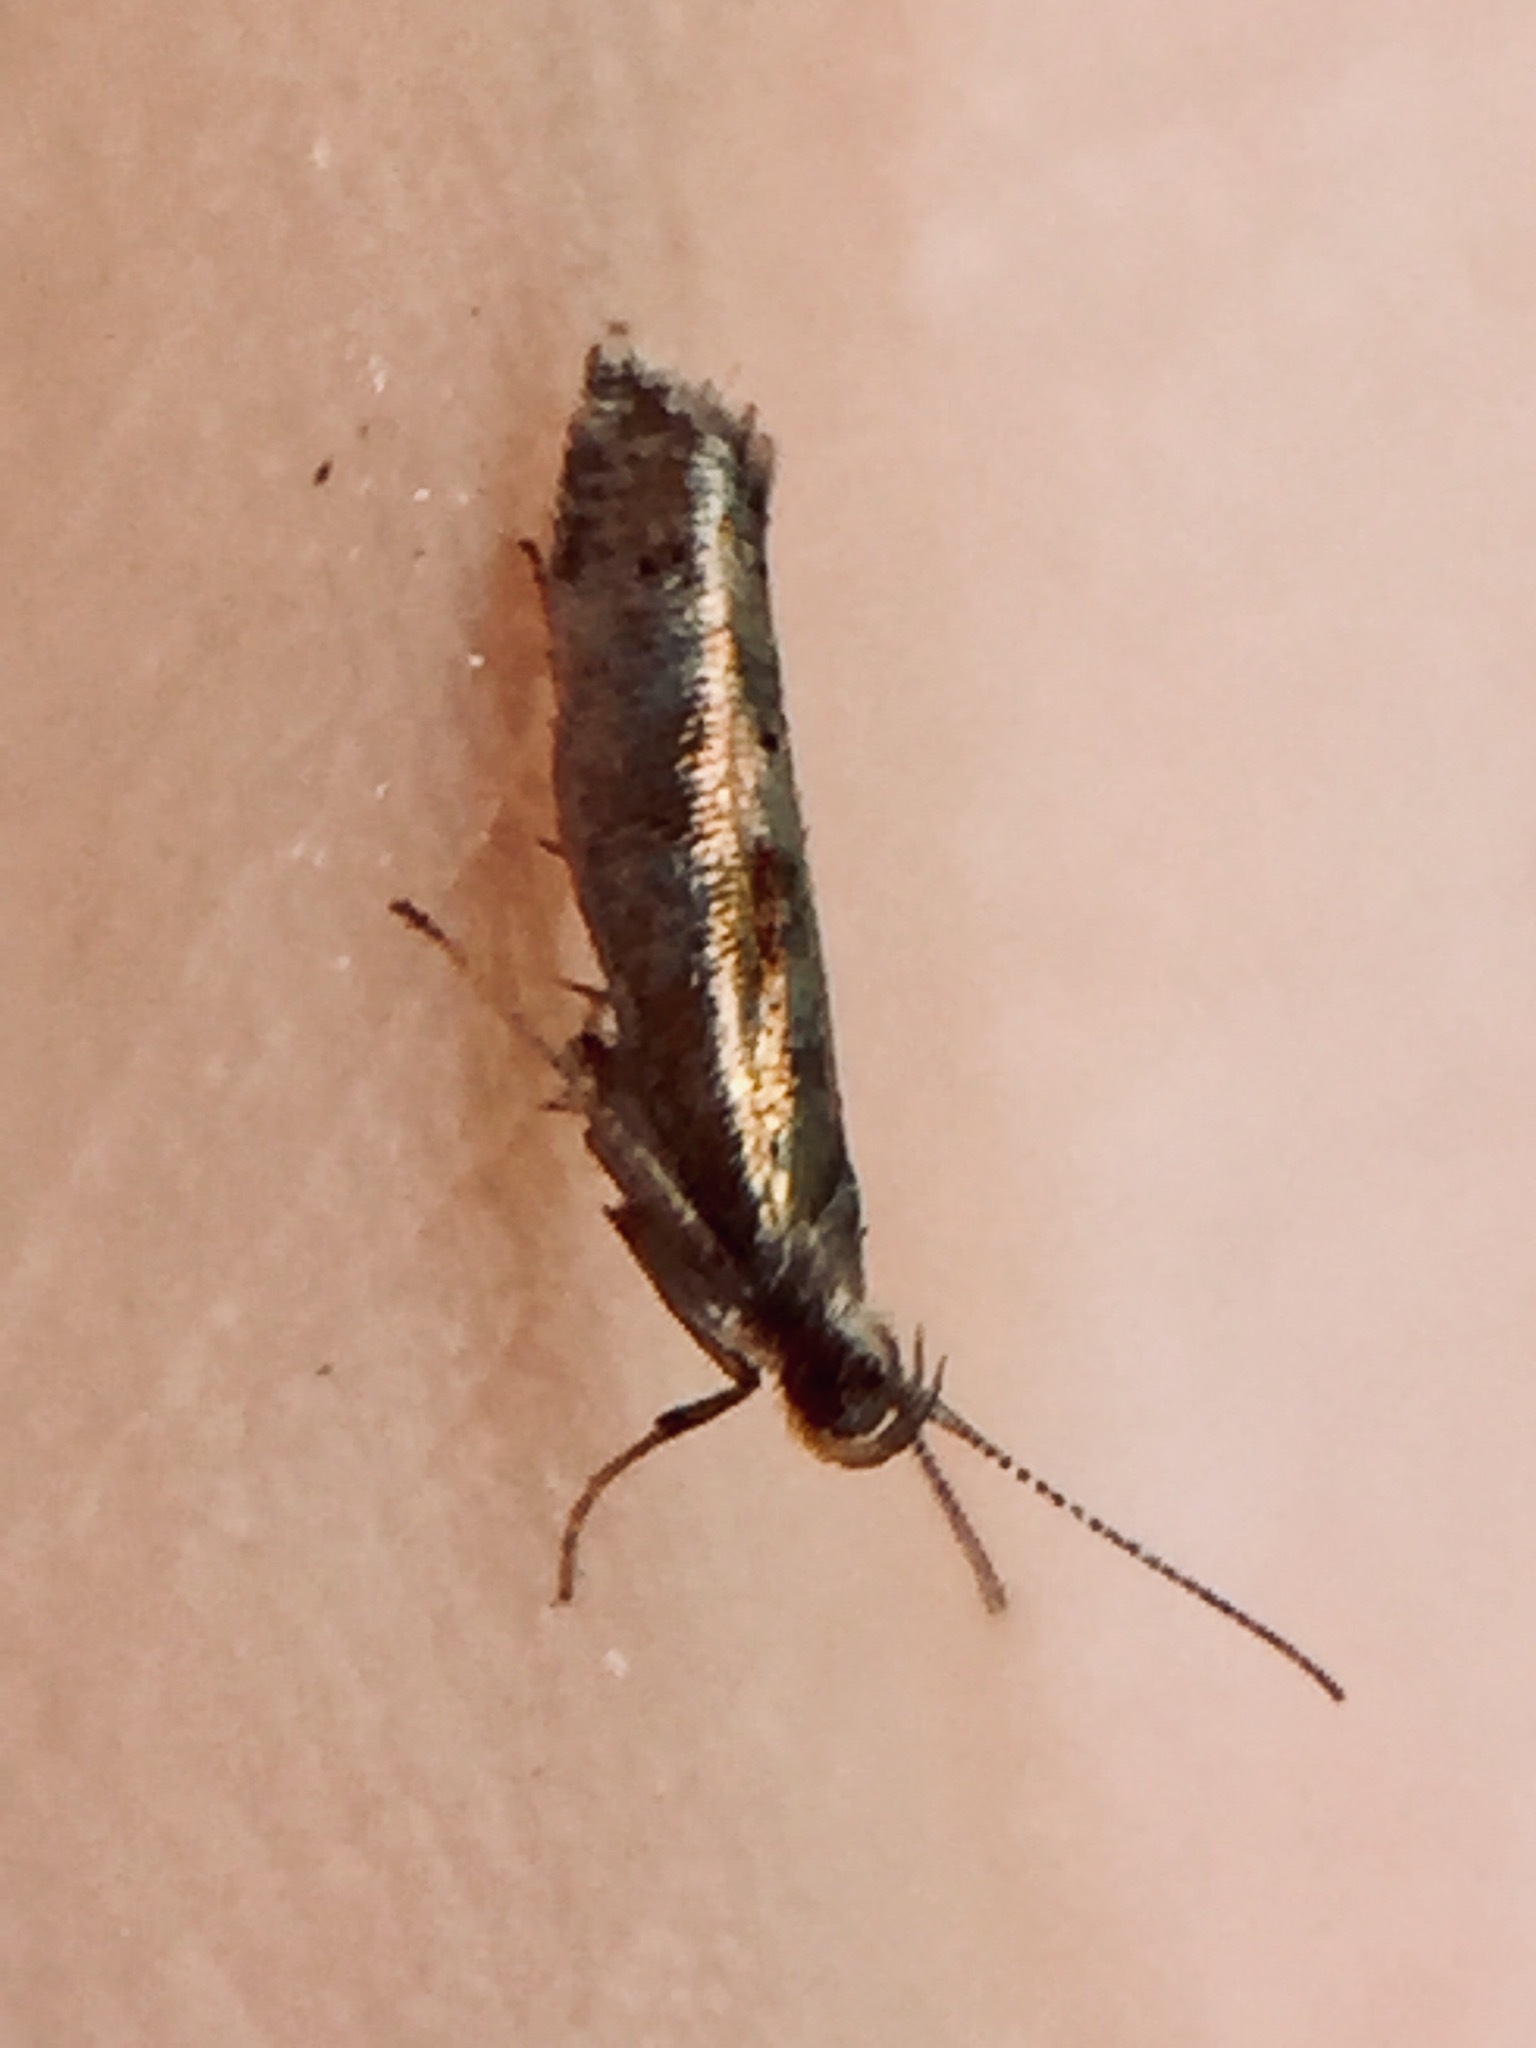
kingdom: Animalia
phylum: Arthropoda
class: Insecta
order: Lepidoptera
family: Glyphipterigidae
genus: Chrysorthenches
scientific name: Chrysorthenches drosochalca
